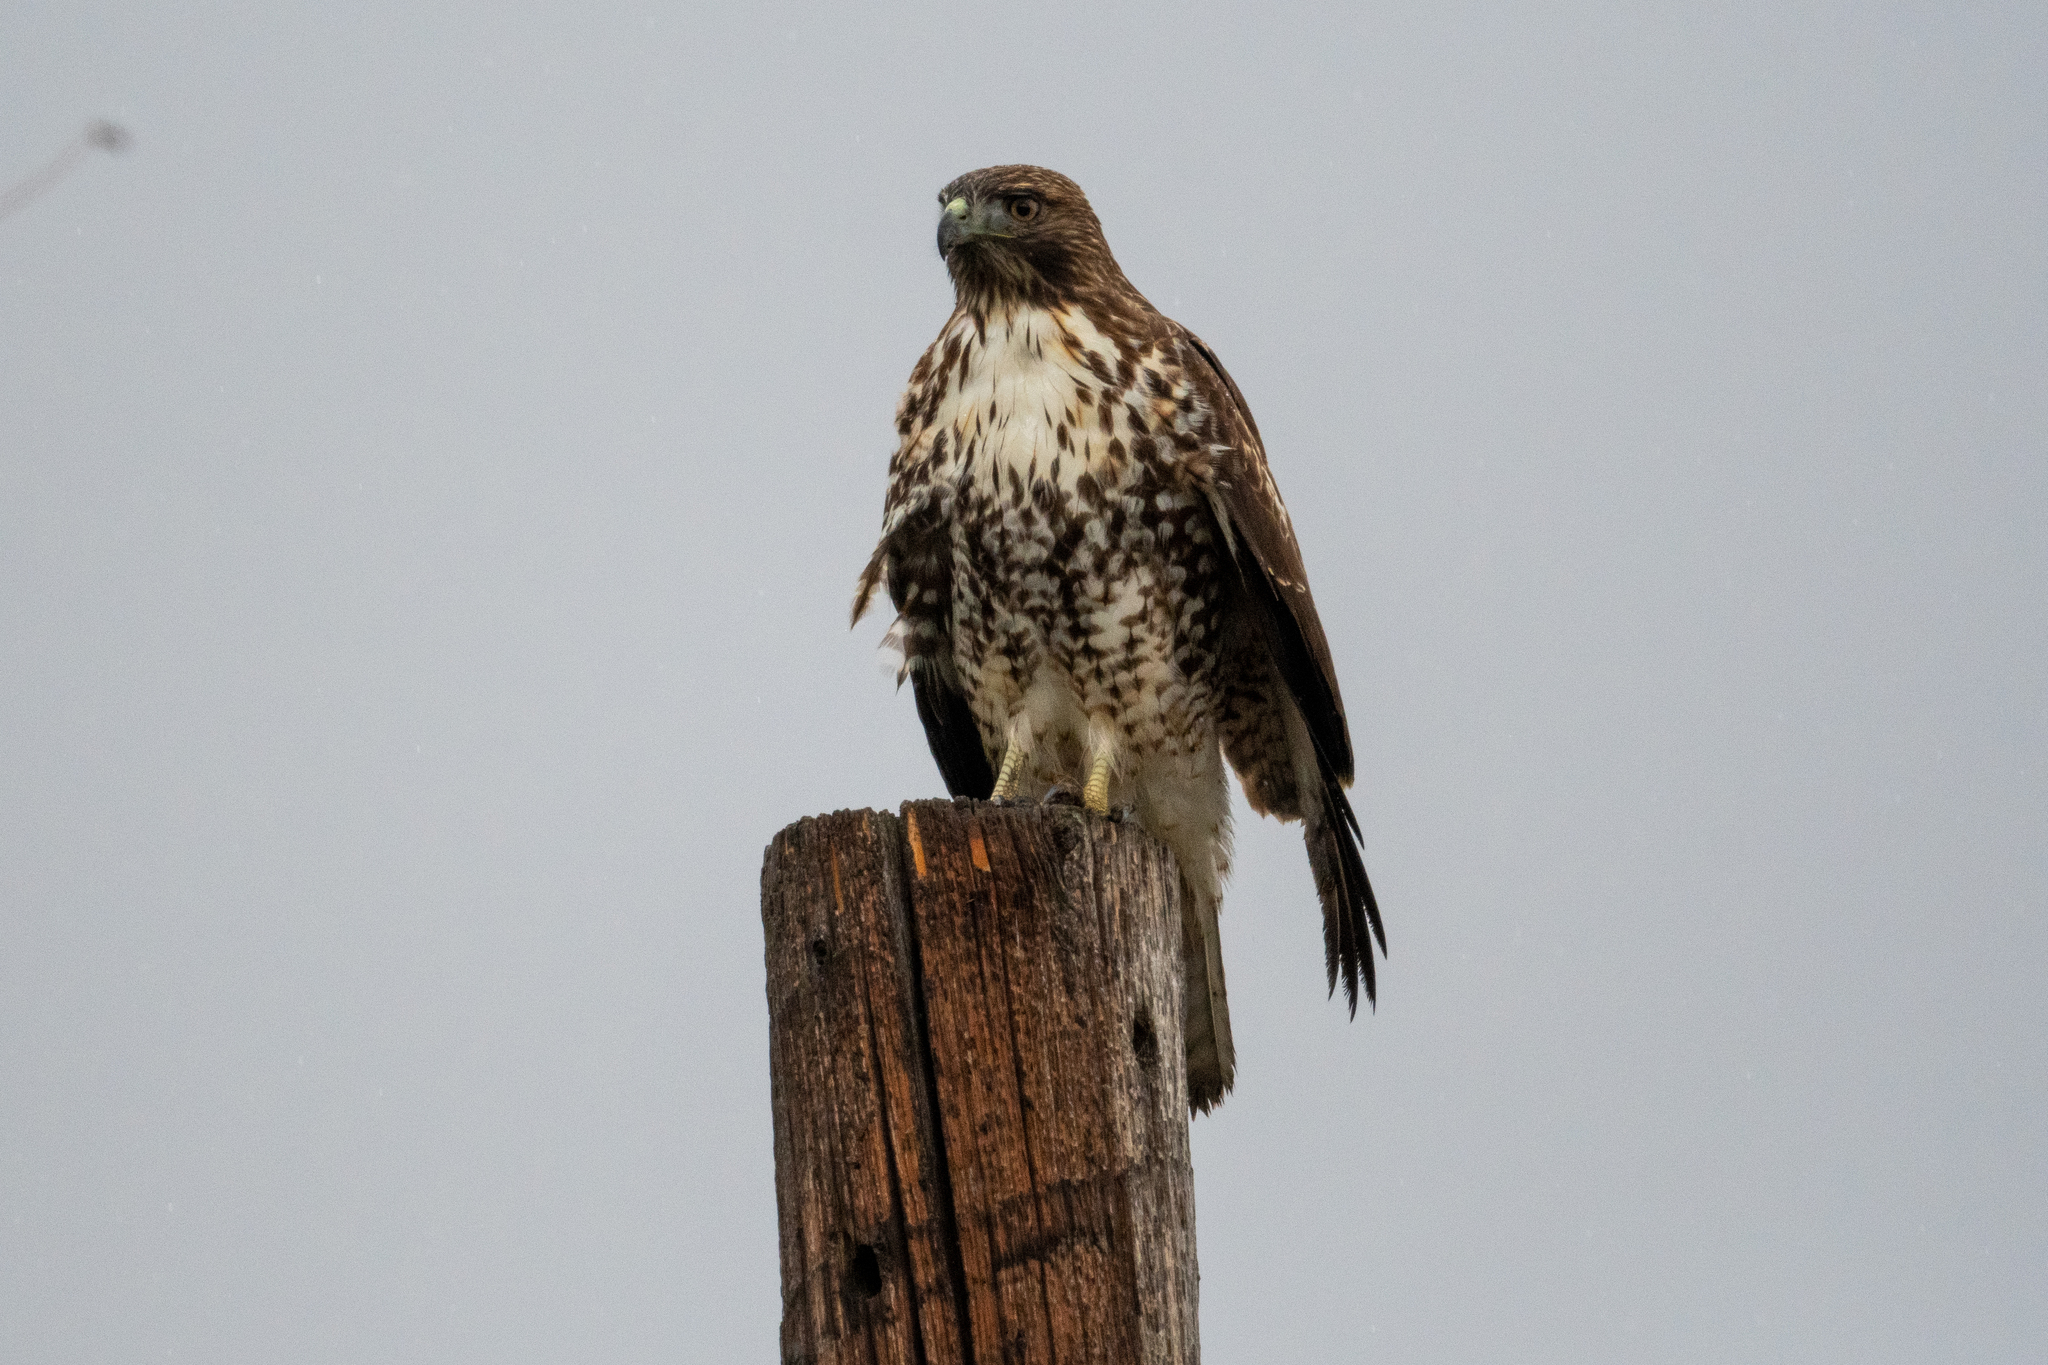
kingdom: Animalia
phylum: Chordata
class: Aves
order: Accipitriformes
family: Accipitridae
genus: Buteo
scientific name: Buteo jamaicensis
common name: Red-tailed hawk
